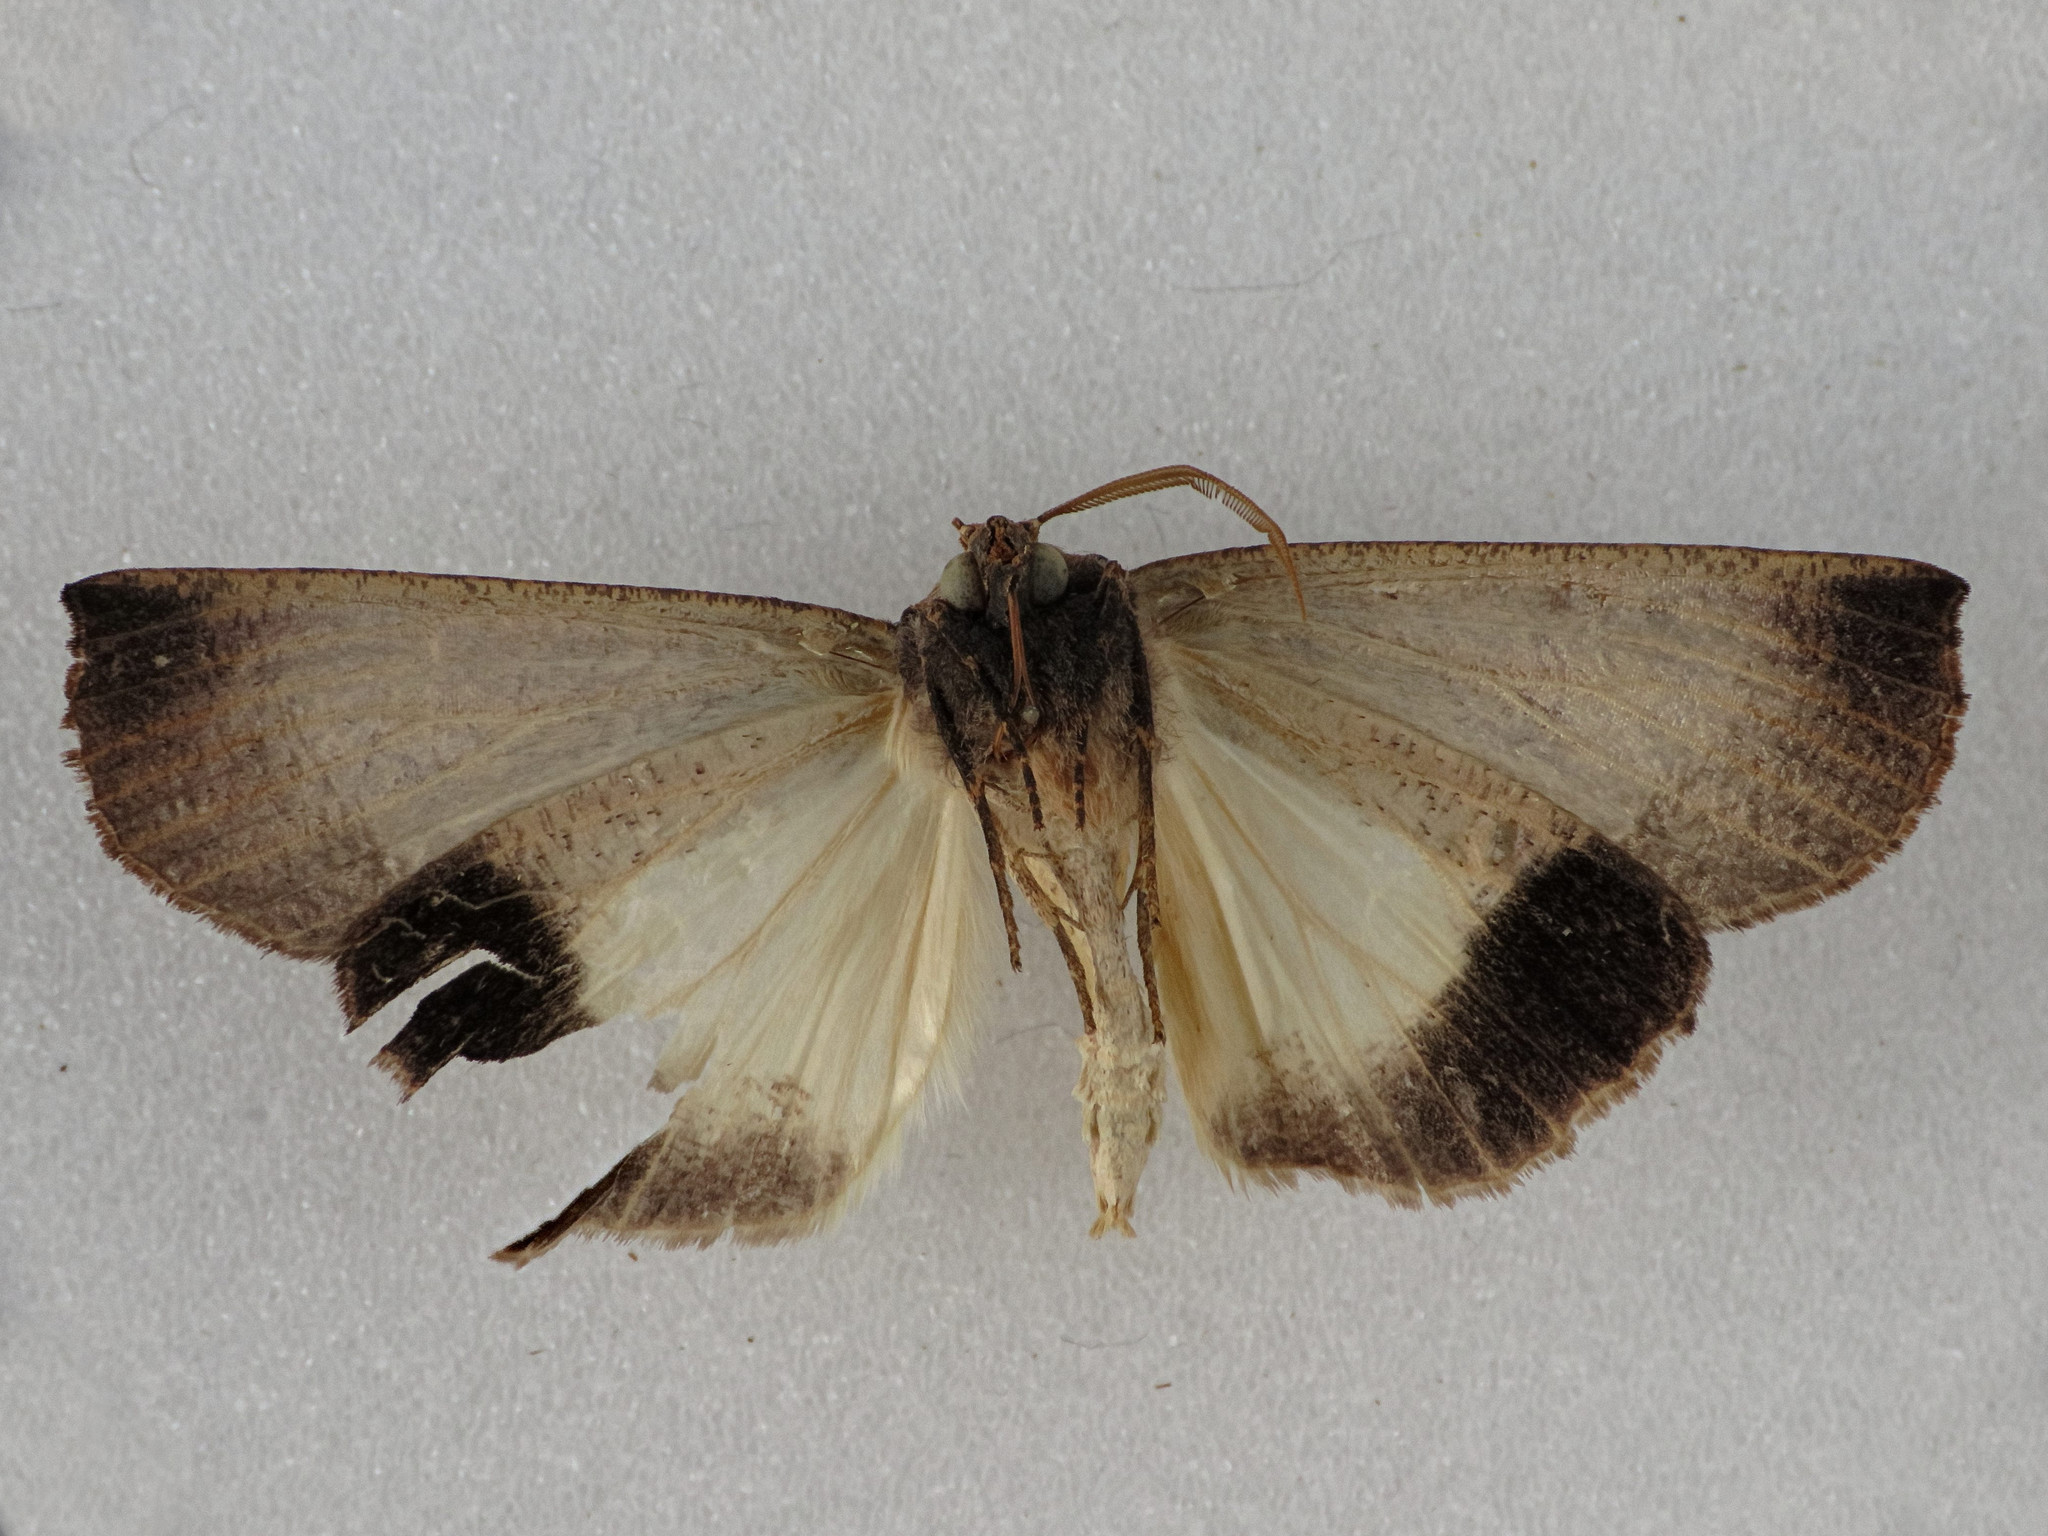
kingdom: Animalia
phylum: Arthropoda
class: Insecta
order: Lepidoptera
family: Geometridae
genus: Fisera
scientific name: Fisera eribola
